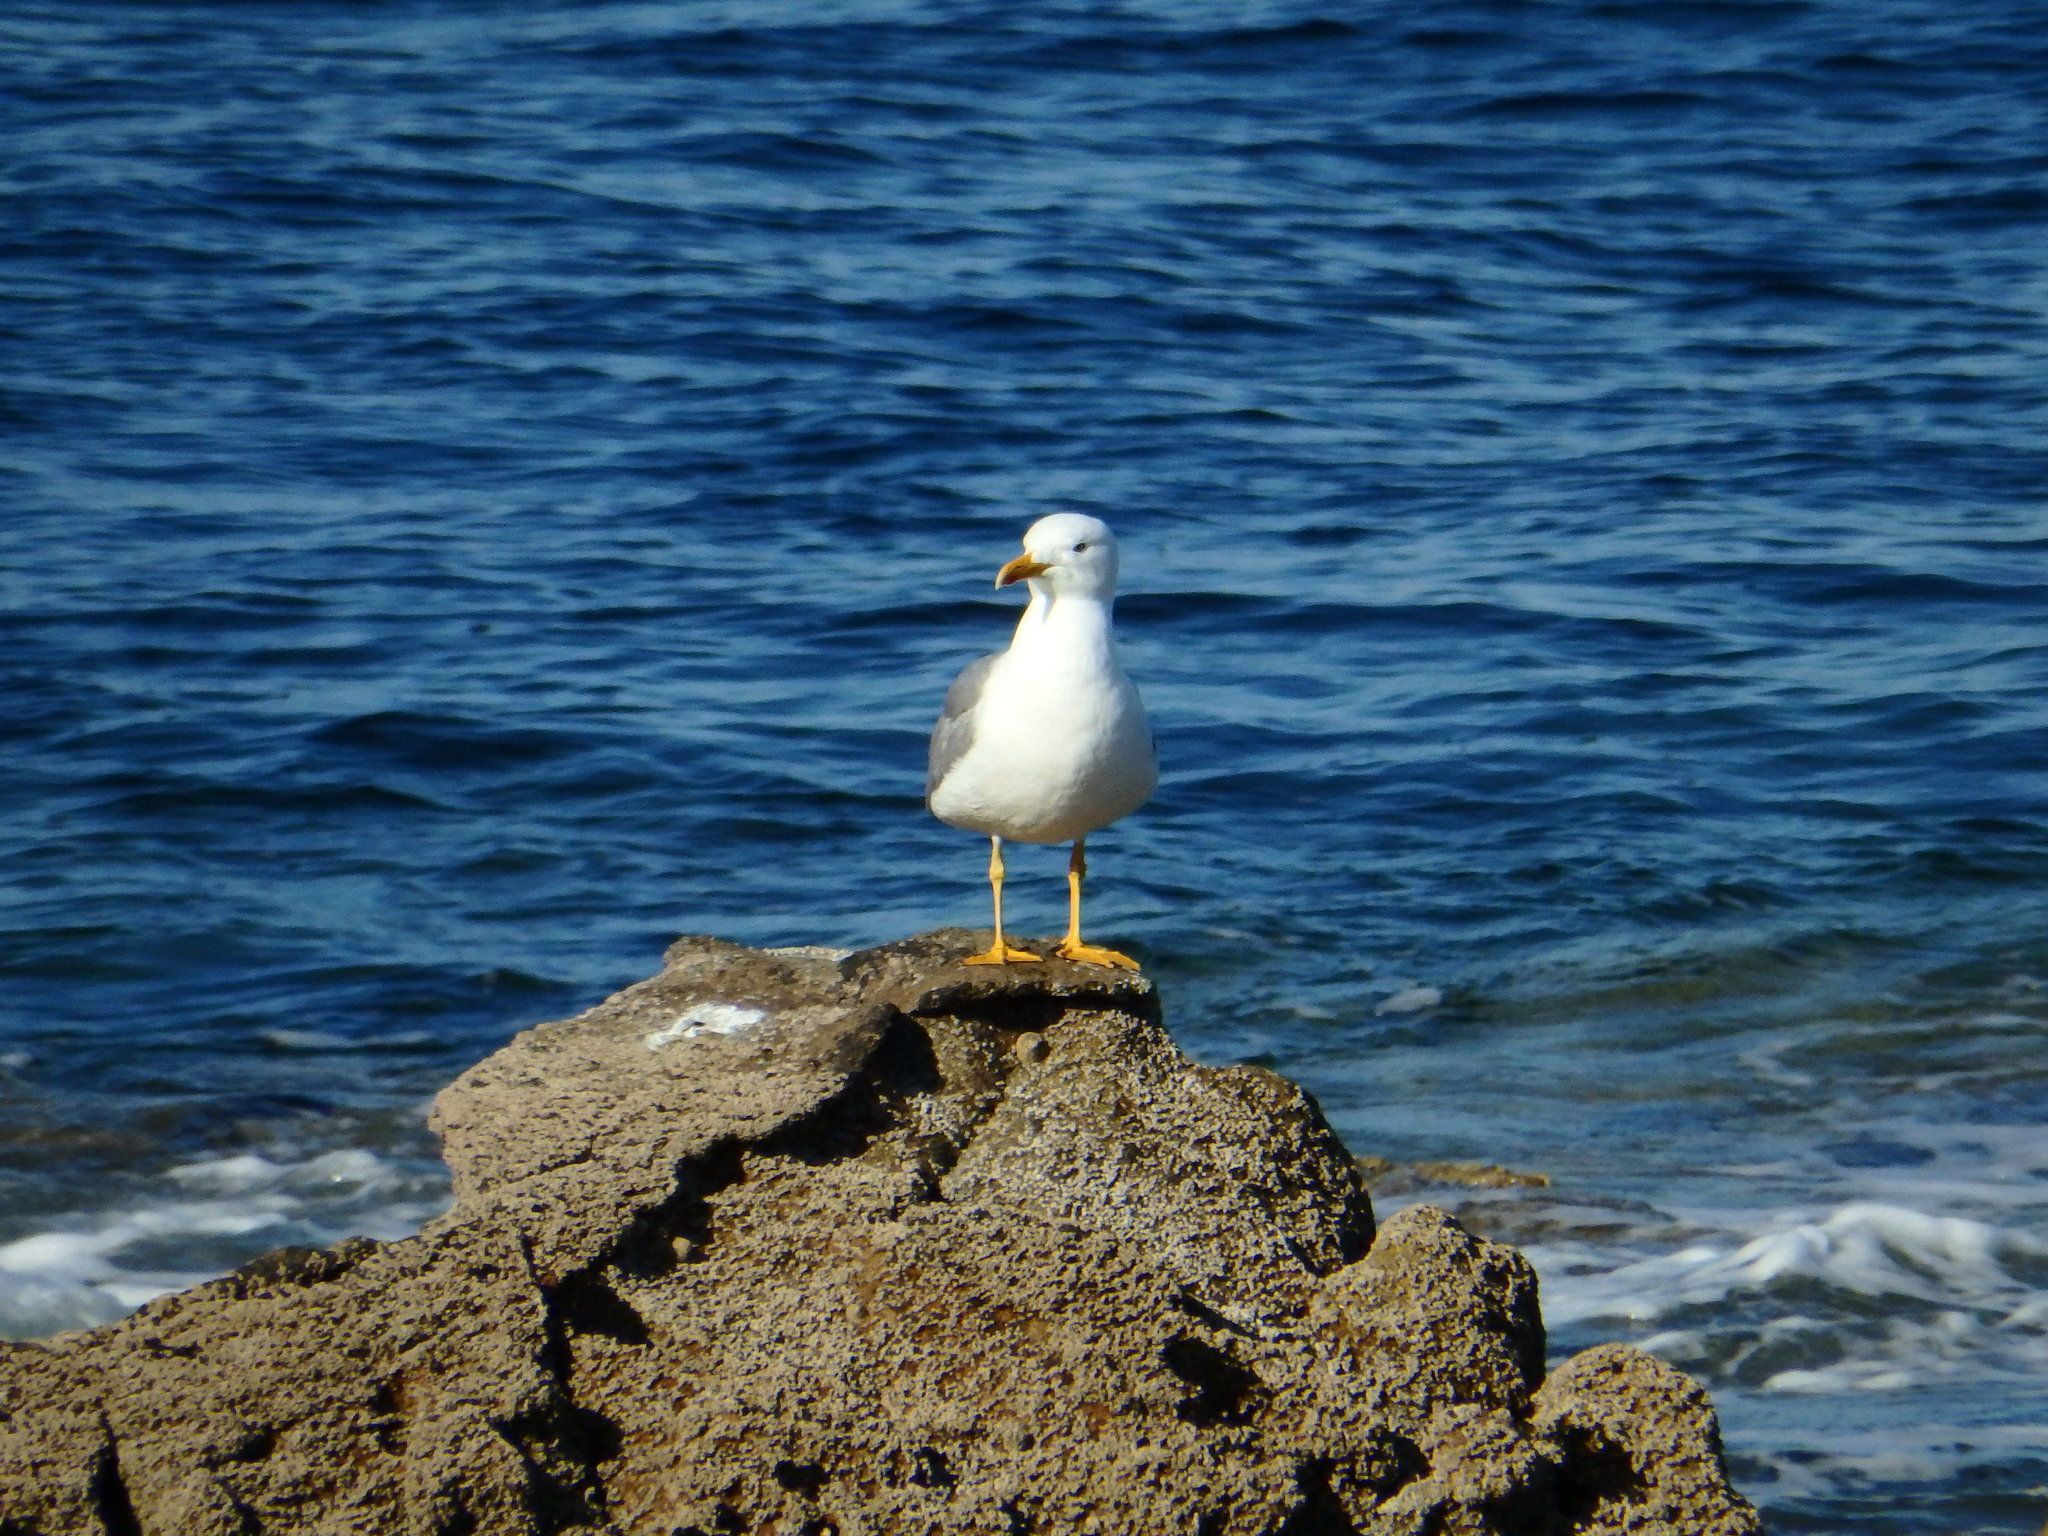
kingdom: Animalia
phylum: Chordata
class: Aves
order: Charadriiformes
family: Laridae
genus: Larus
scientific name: Larus michahellis
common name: Yellow-legged gull
